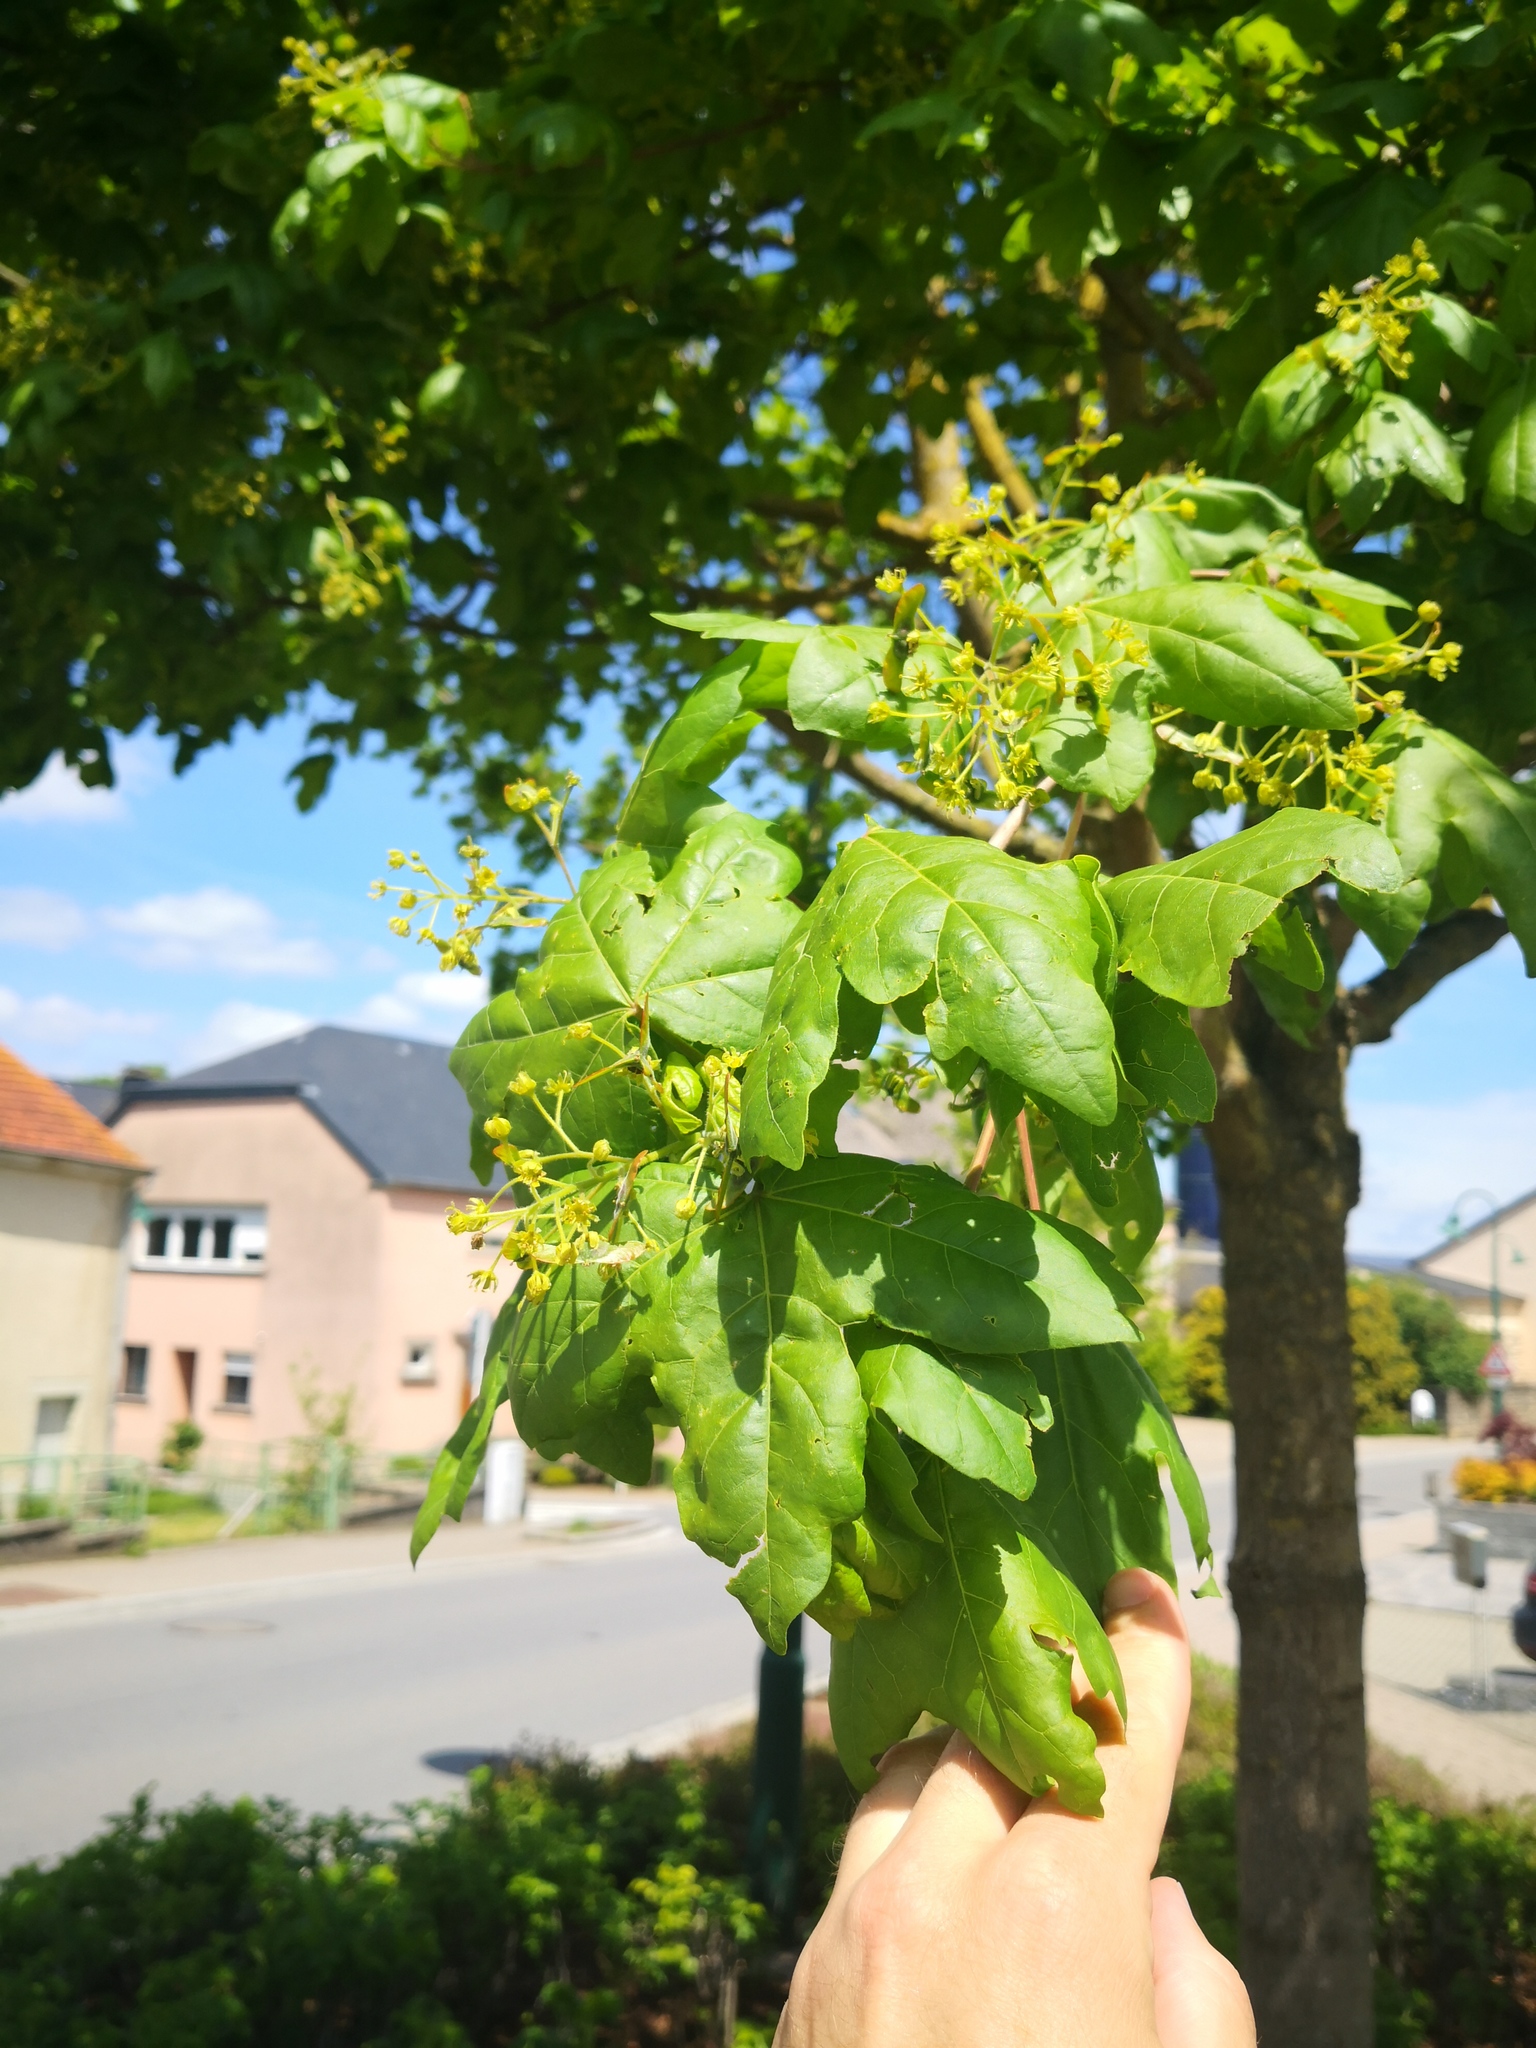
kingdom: Plantae
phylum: Tracheophyta
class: Magnoliopsida
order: Sapindales
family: Sapindaceae
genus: Acer
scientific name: Acer campestre
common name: Field maple
